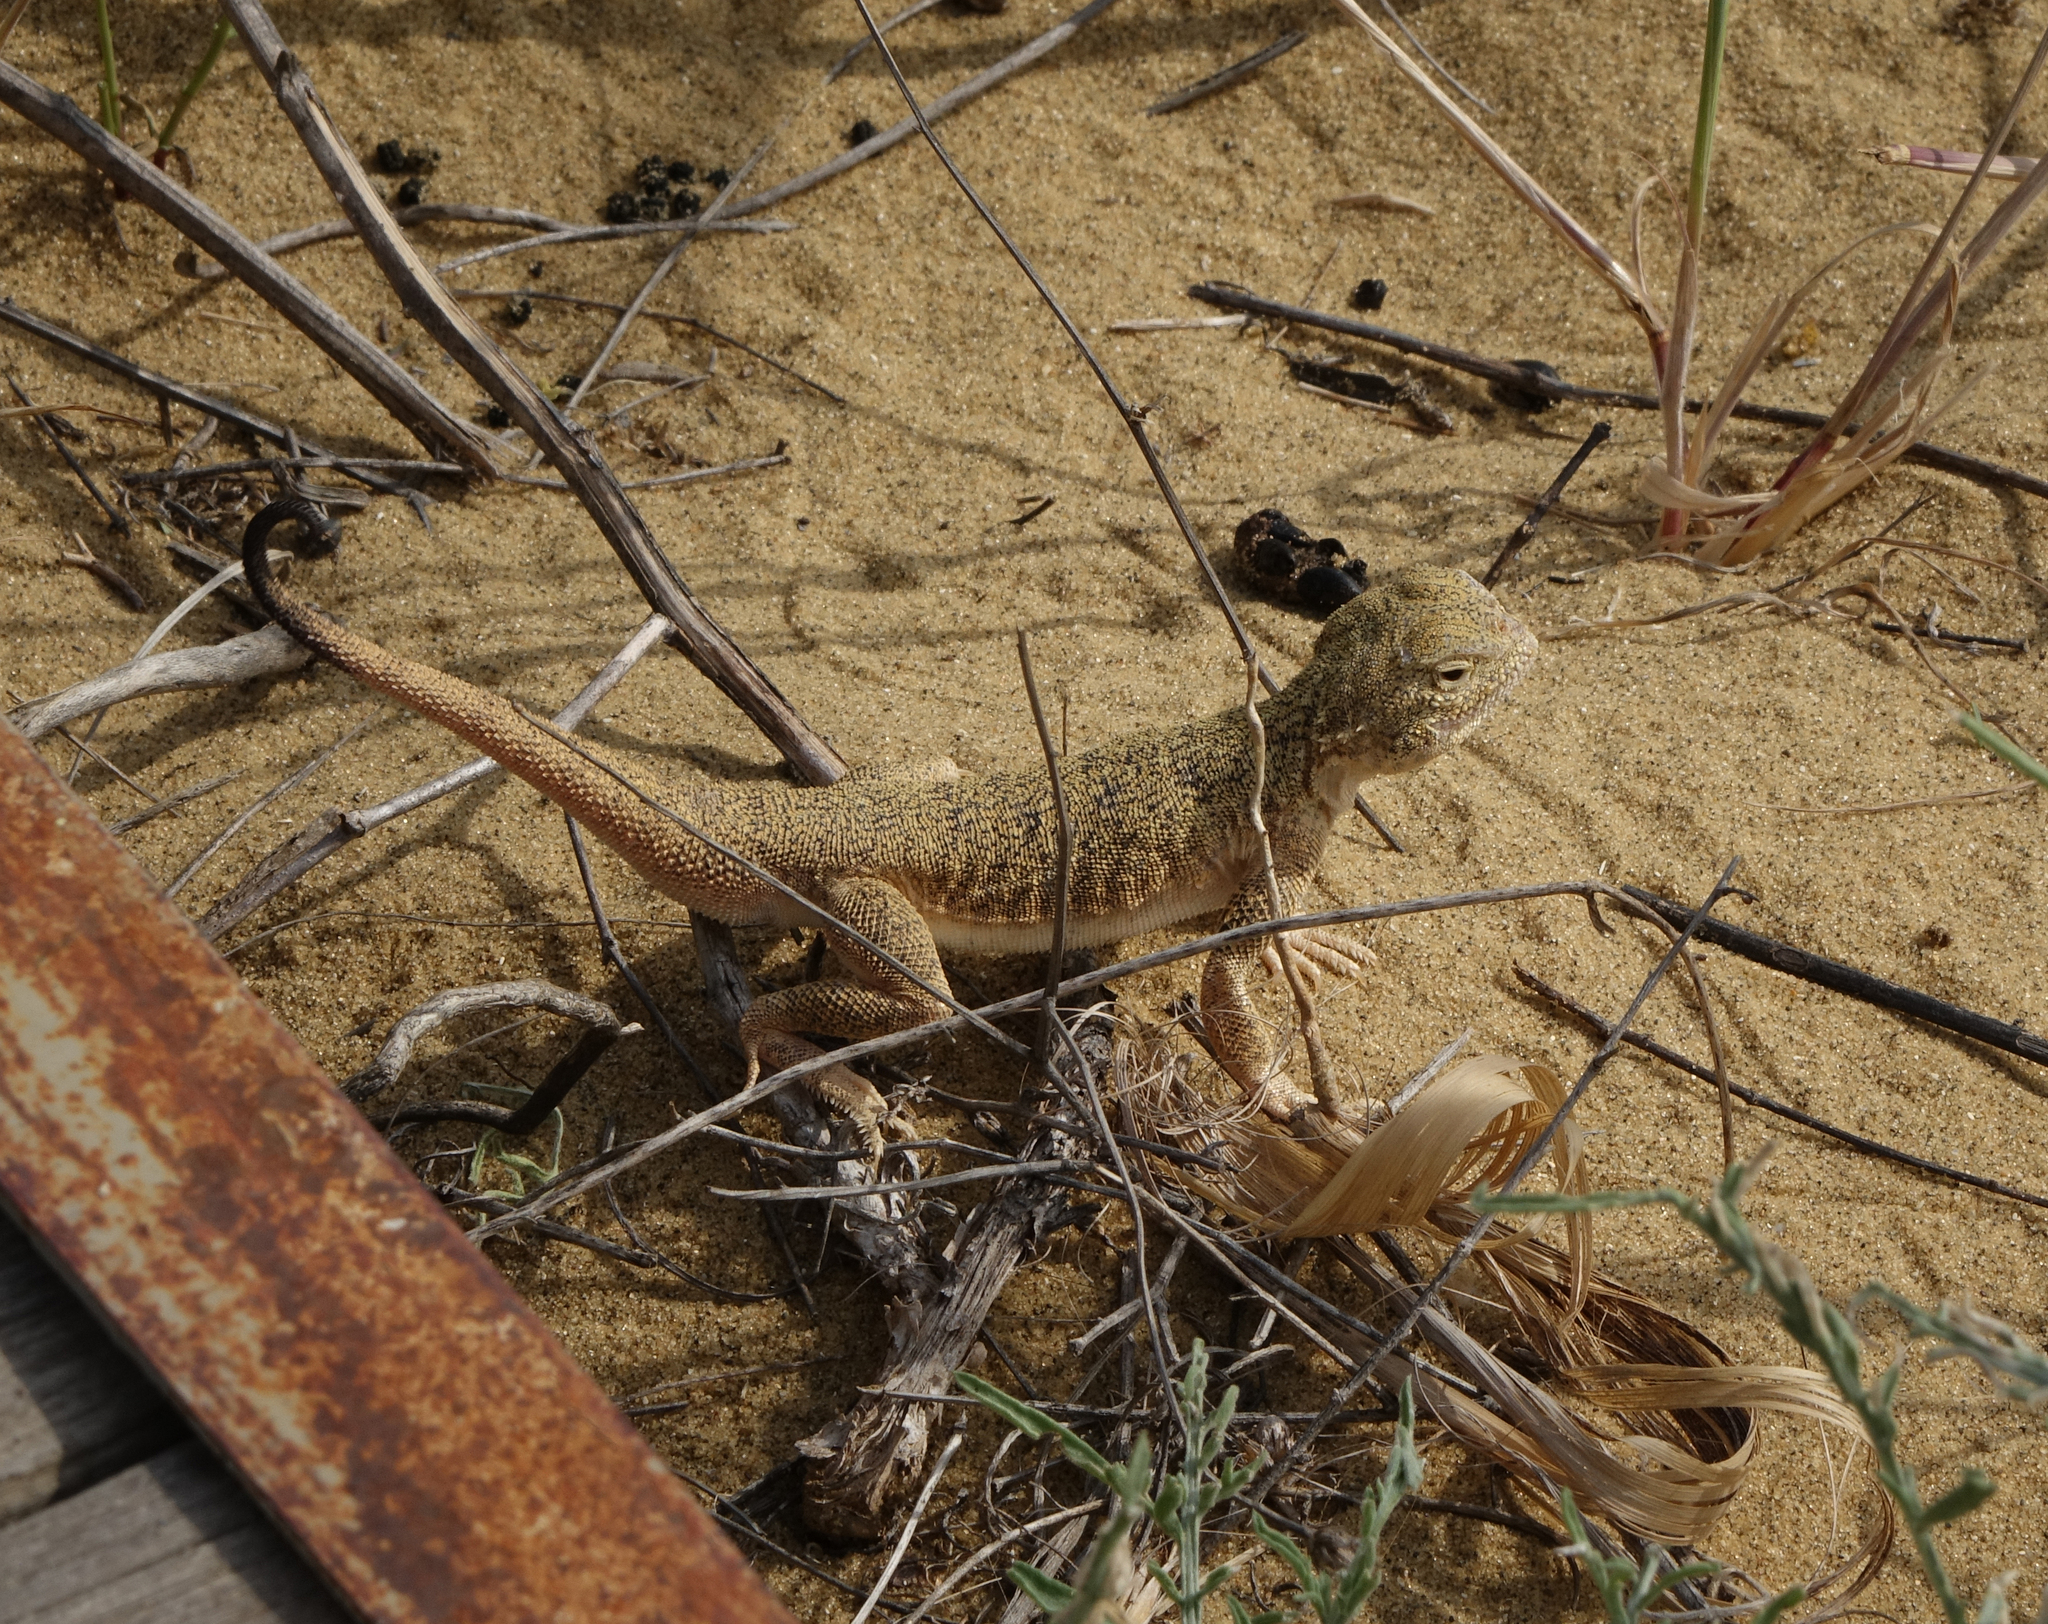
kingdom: Animalia
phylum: Chordata
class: Squamata
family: Agamidae
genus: Phrynocephalus
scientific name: Phrynocephalus mystaceus
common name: Secret toadhead agama
